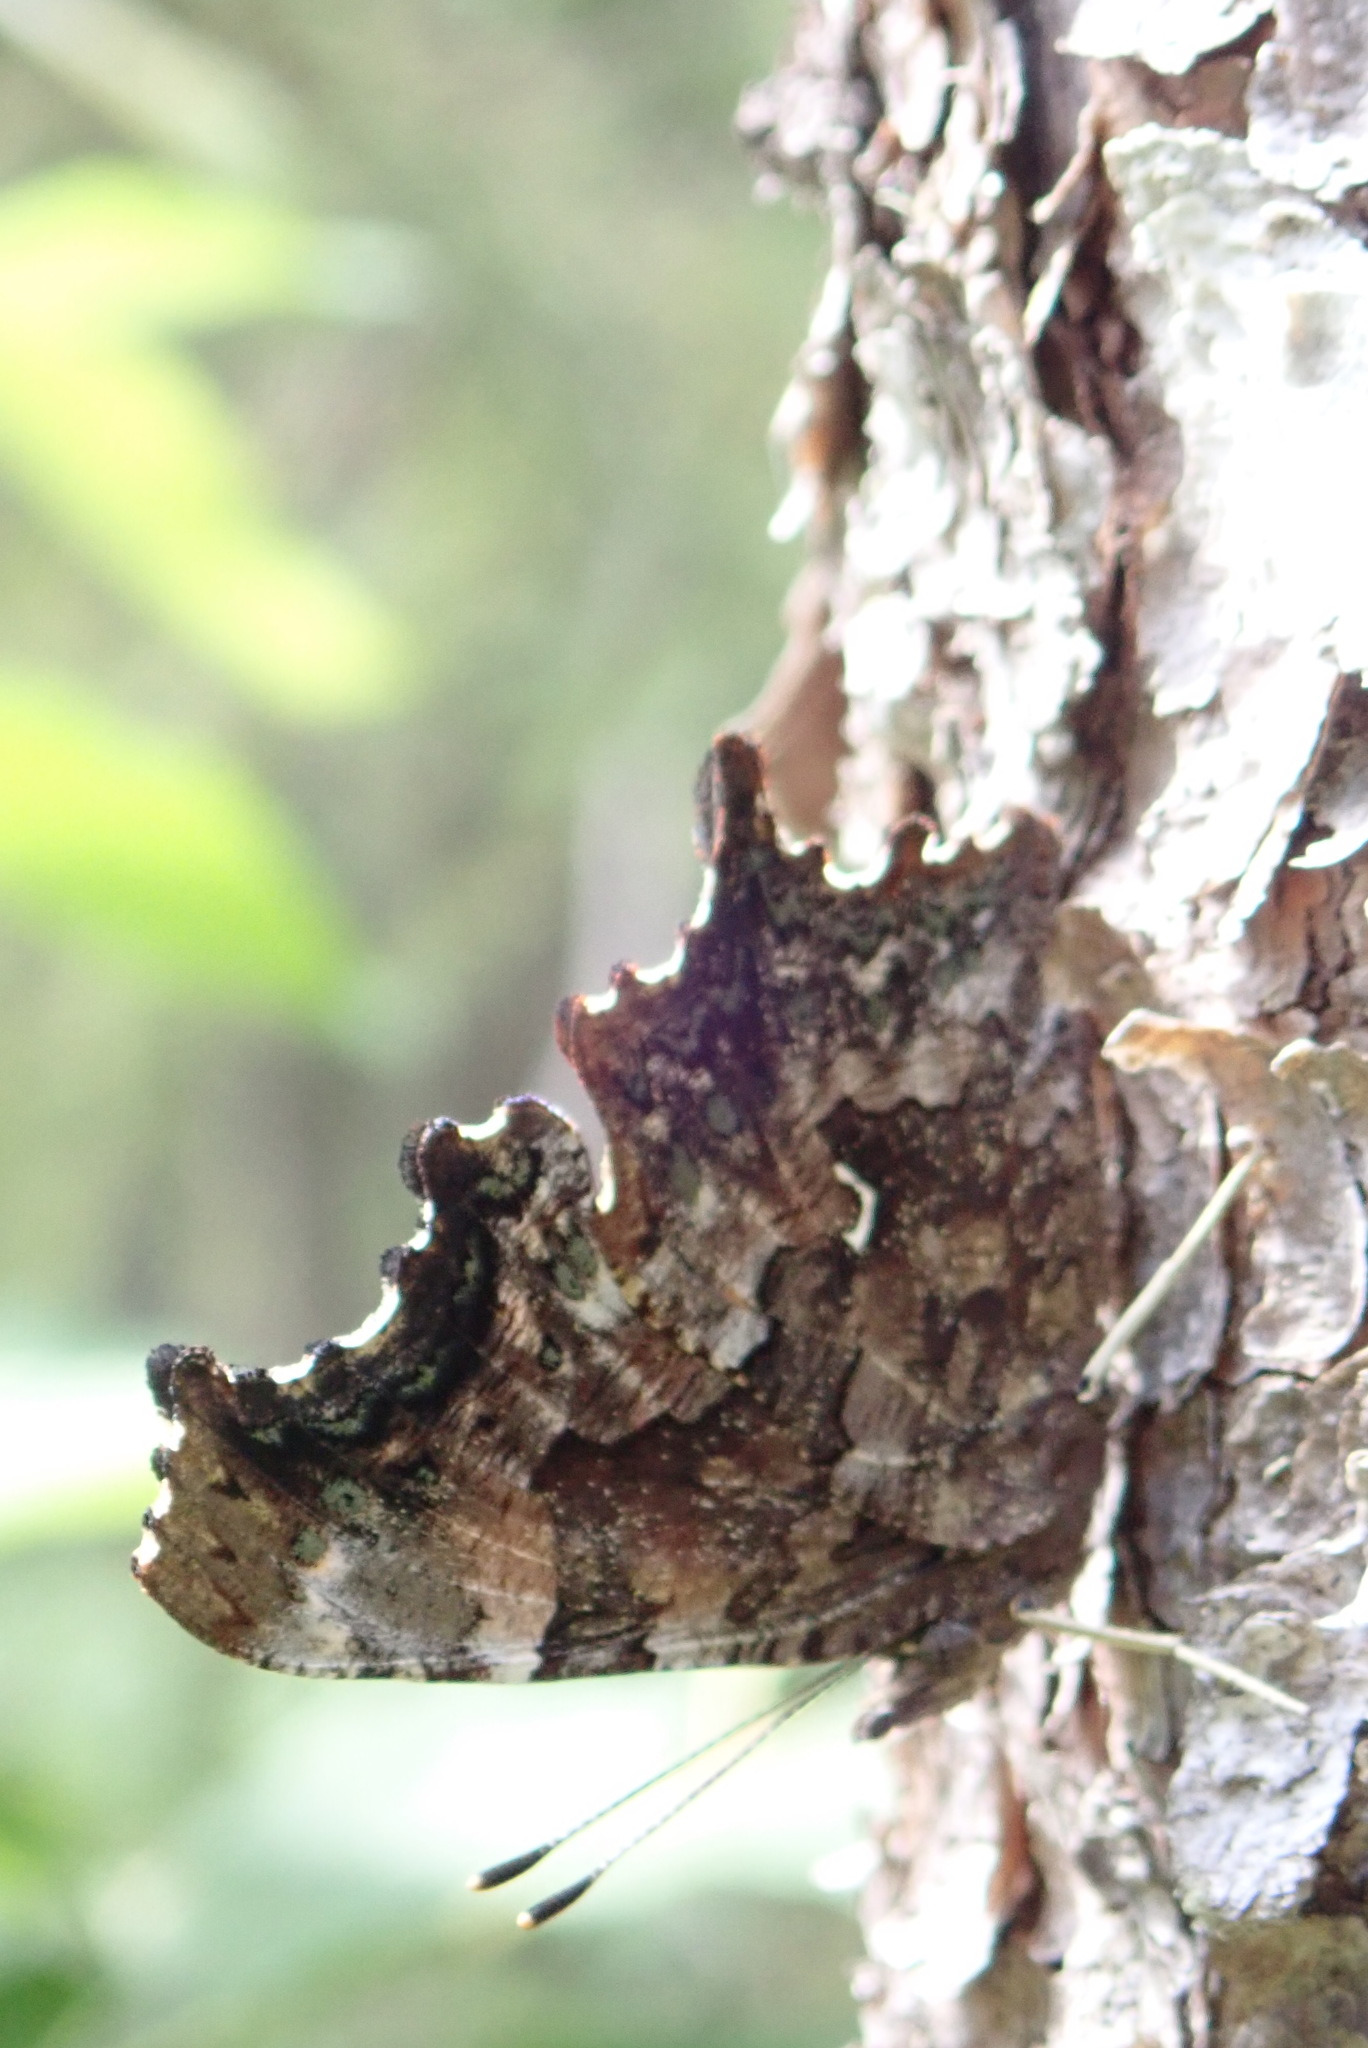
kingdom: Animalia
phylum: Arthropoda
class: Insecta
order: Lepidoptera
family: Nymphalidae
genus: Polygonia
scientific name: Polygonia faunus
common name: Green comma
